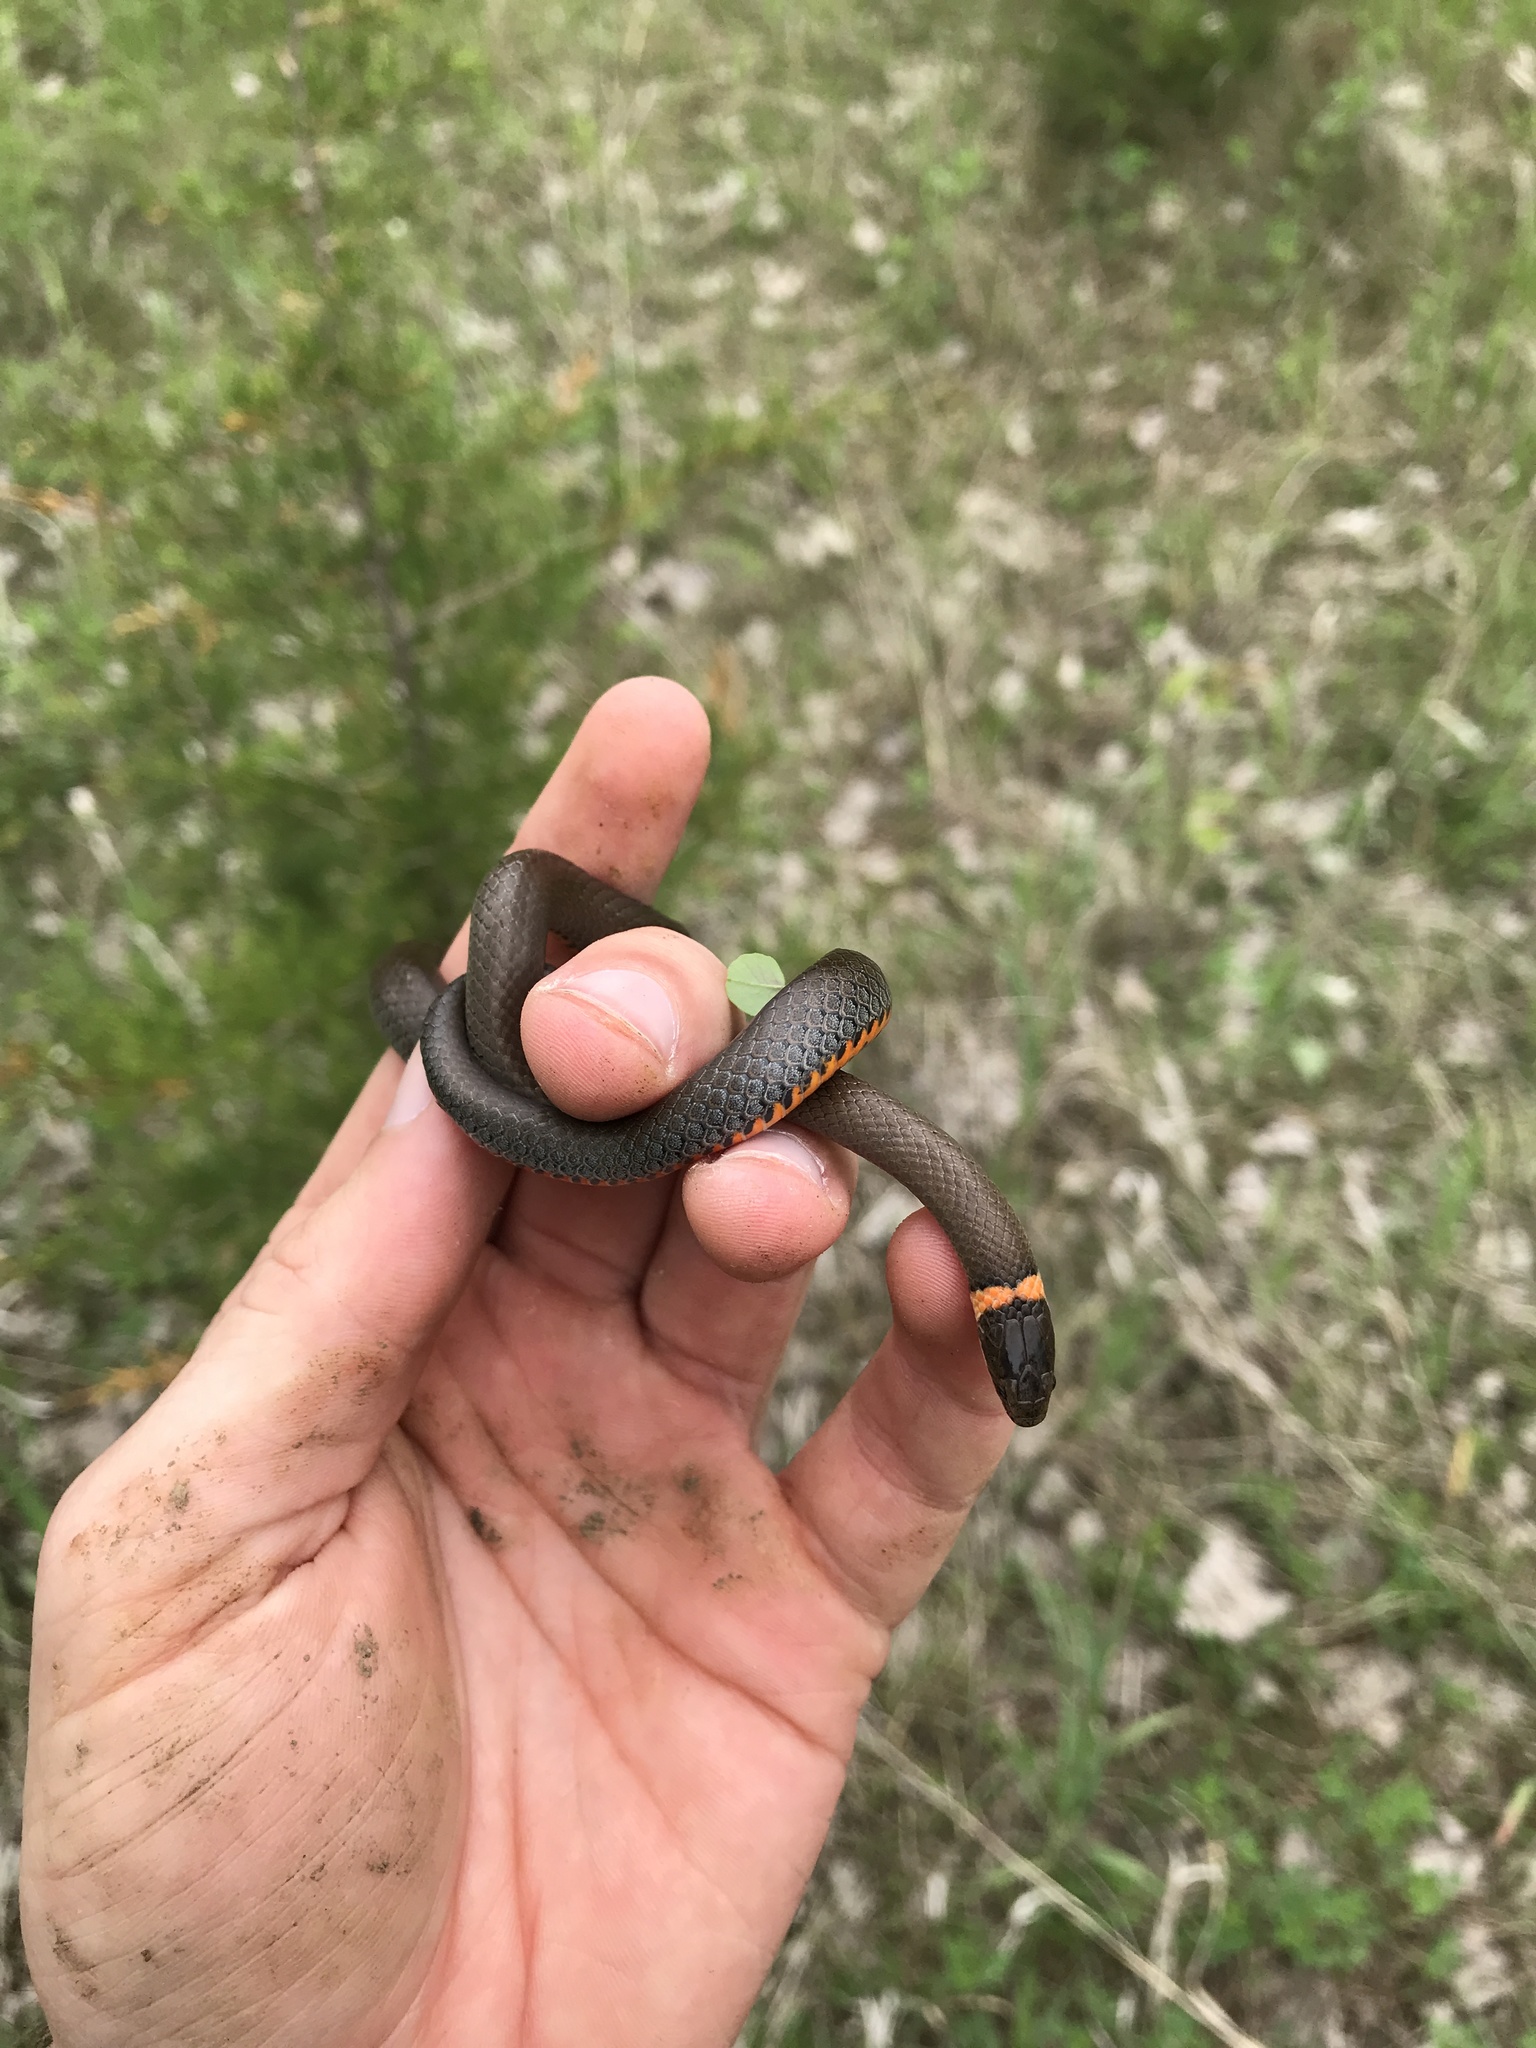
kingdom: Animalia
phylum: Chordata
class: Squamata
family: Colubridae
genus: Diadophis
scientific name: Diadophis punctatus
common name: Ringneck snake
